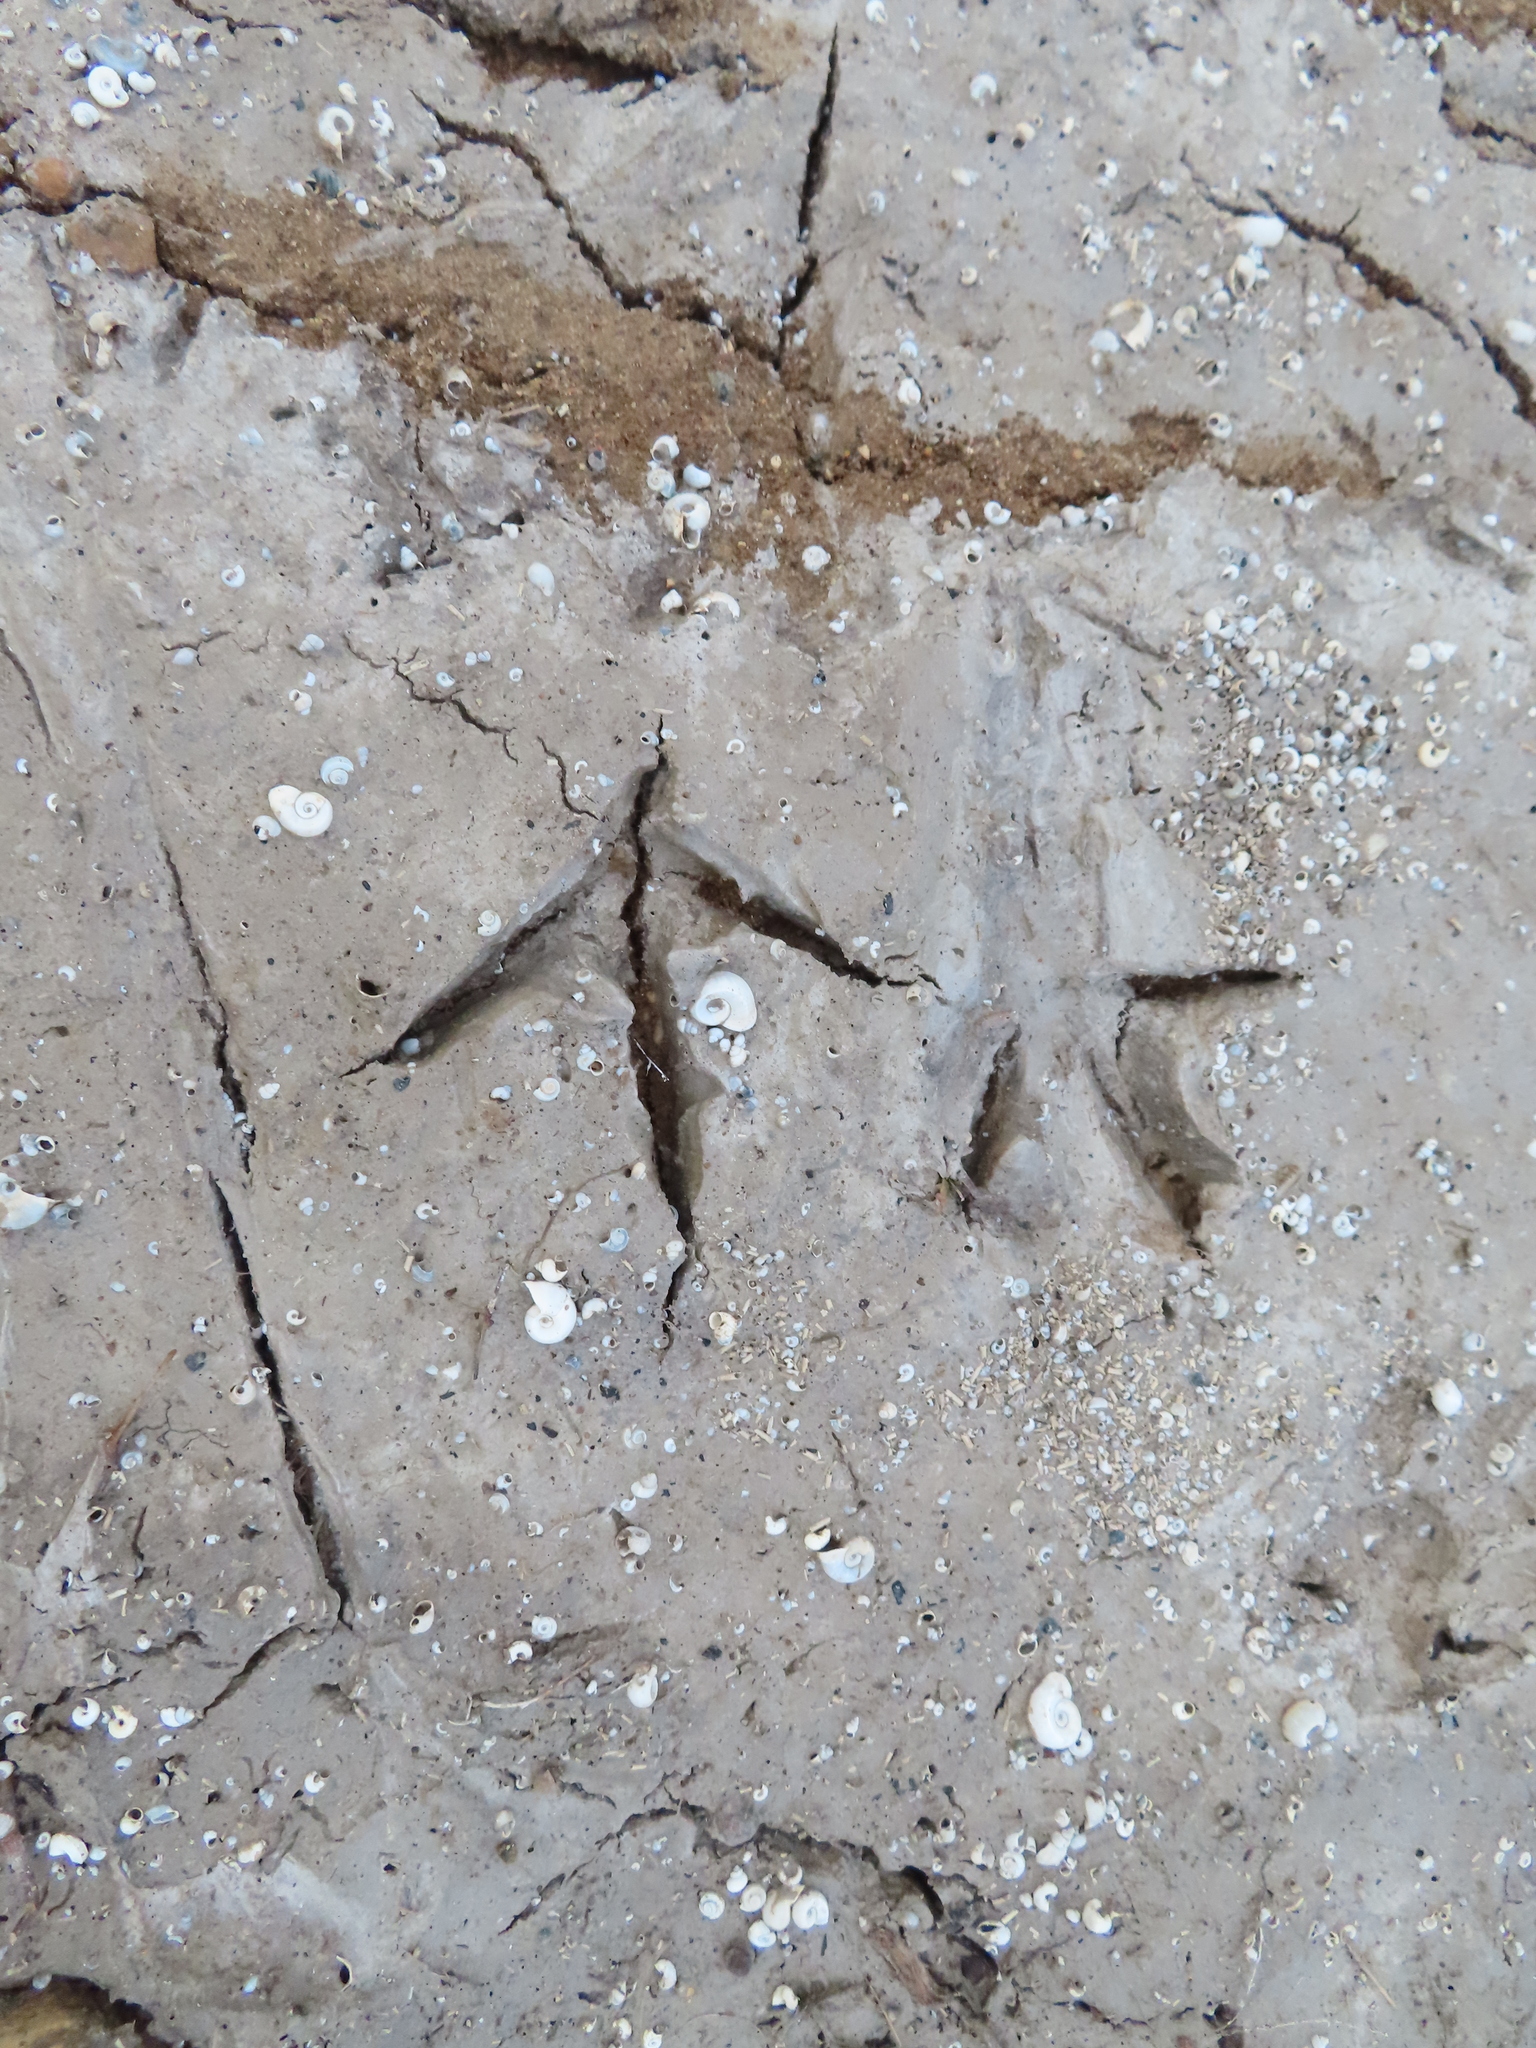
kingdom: Animalia
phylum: Chordata
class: Aves
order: Galliformes
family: Phasianidae
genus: Meleagris
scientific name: Meleagris gallopavo
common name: Wild turkey
